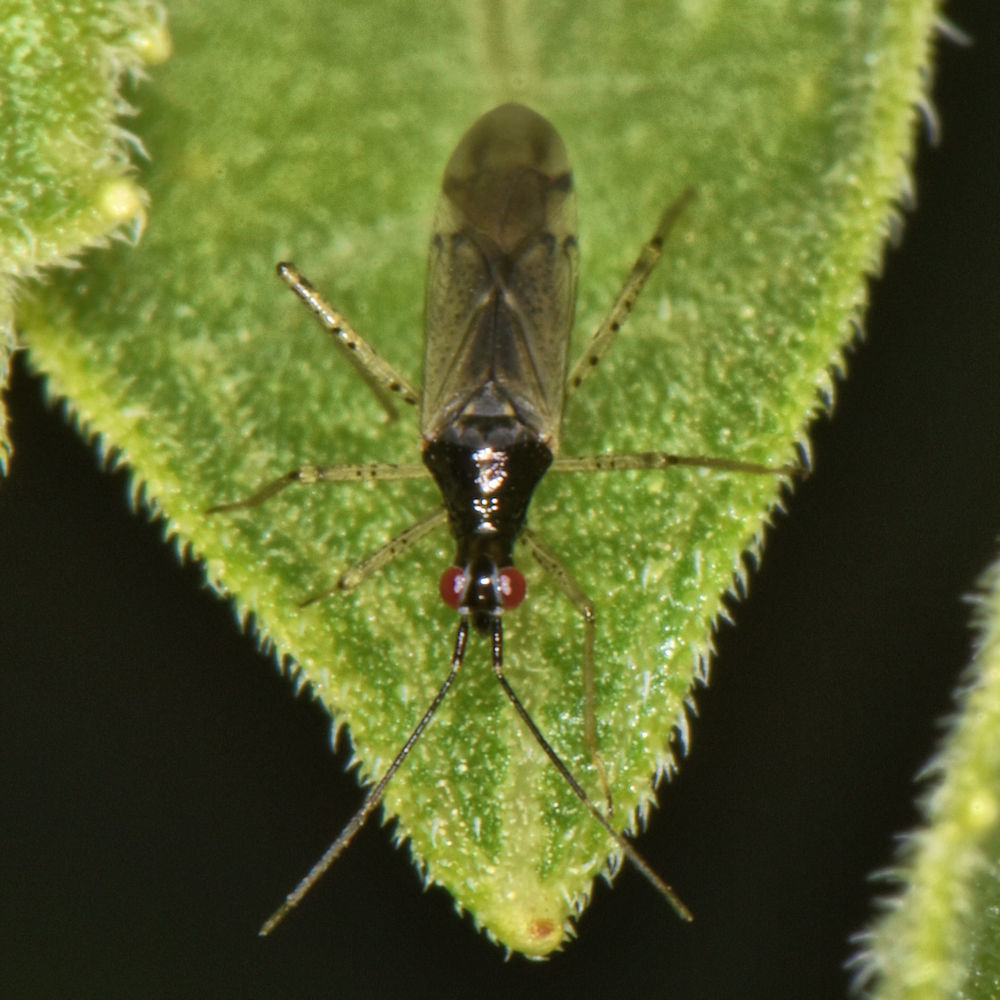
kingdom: Animalia
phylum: Arthropoda
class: Insecta
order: Hemiptera
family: Miridae
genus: Dicyphus
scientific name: Dicyphus hesperus
